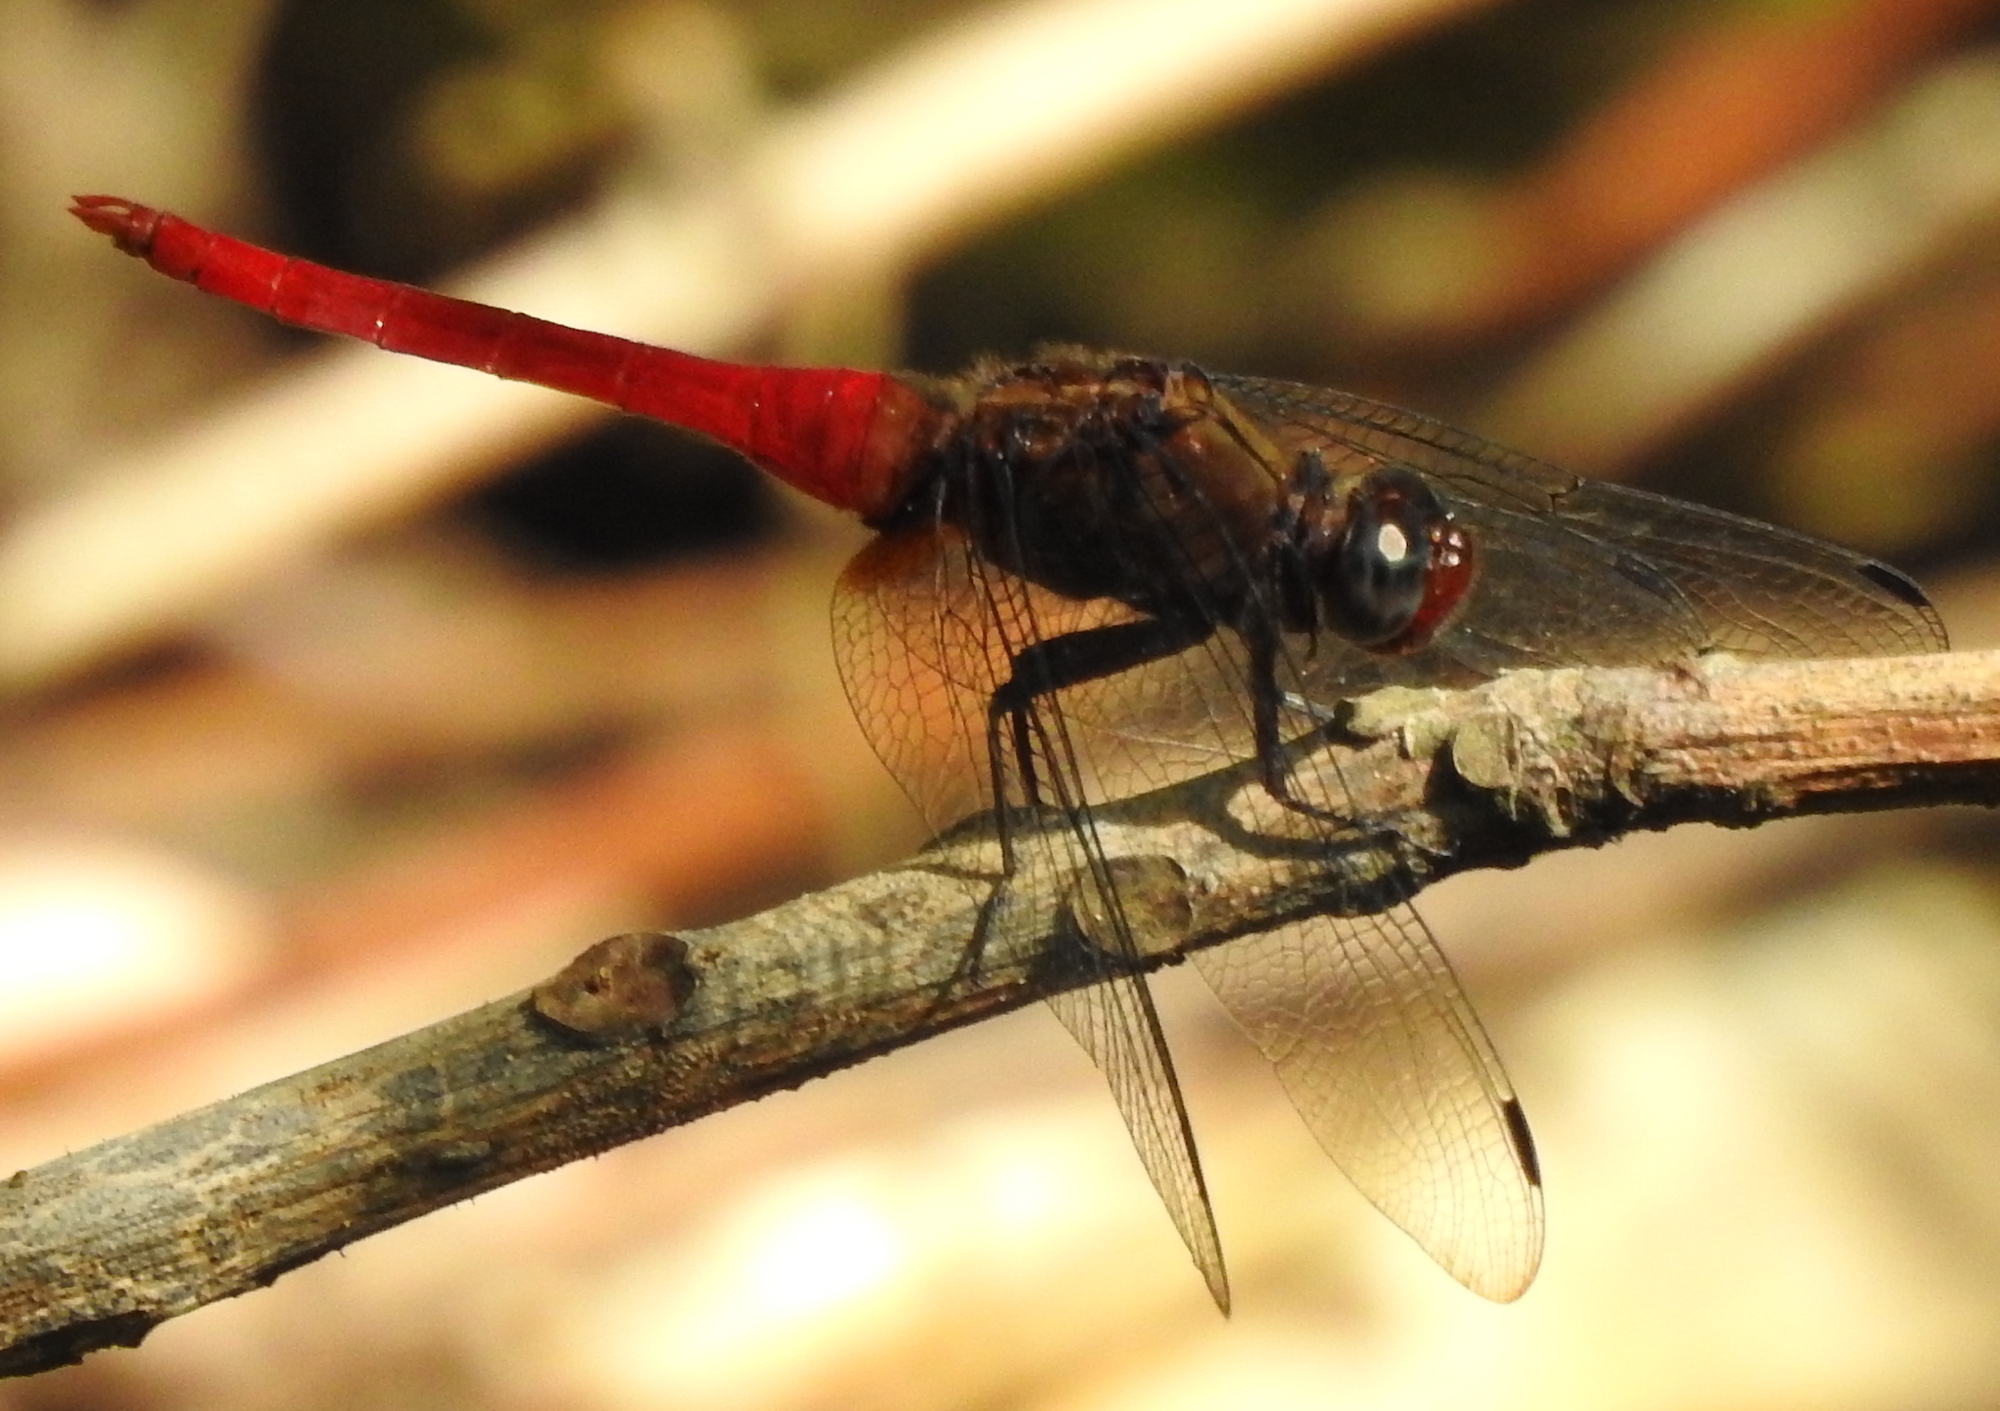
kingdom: Animalia
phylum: Arthropoda
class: Insecta
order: Odonata
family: Libellulidae
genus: Orthetrum
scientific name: Orthetrum chrysis
